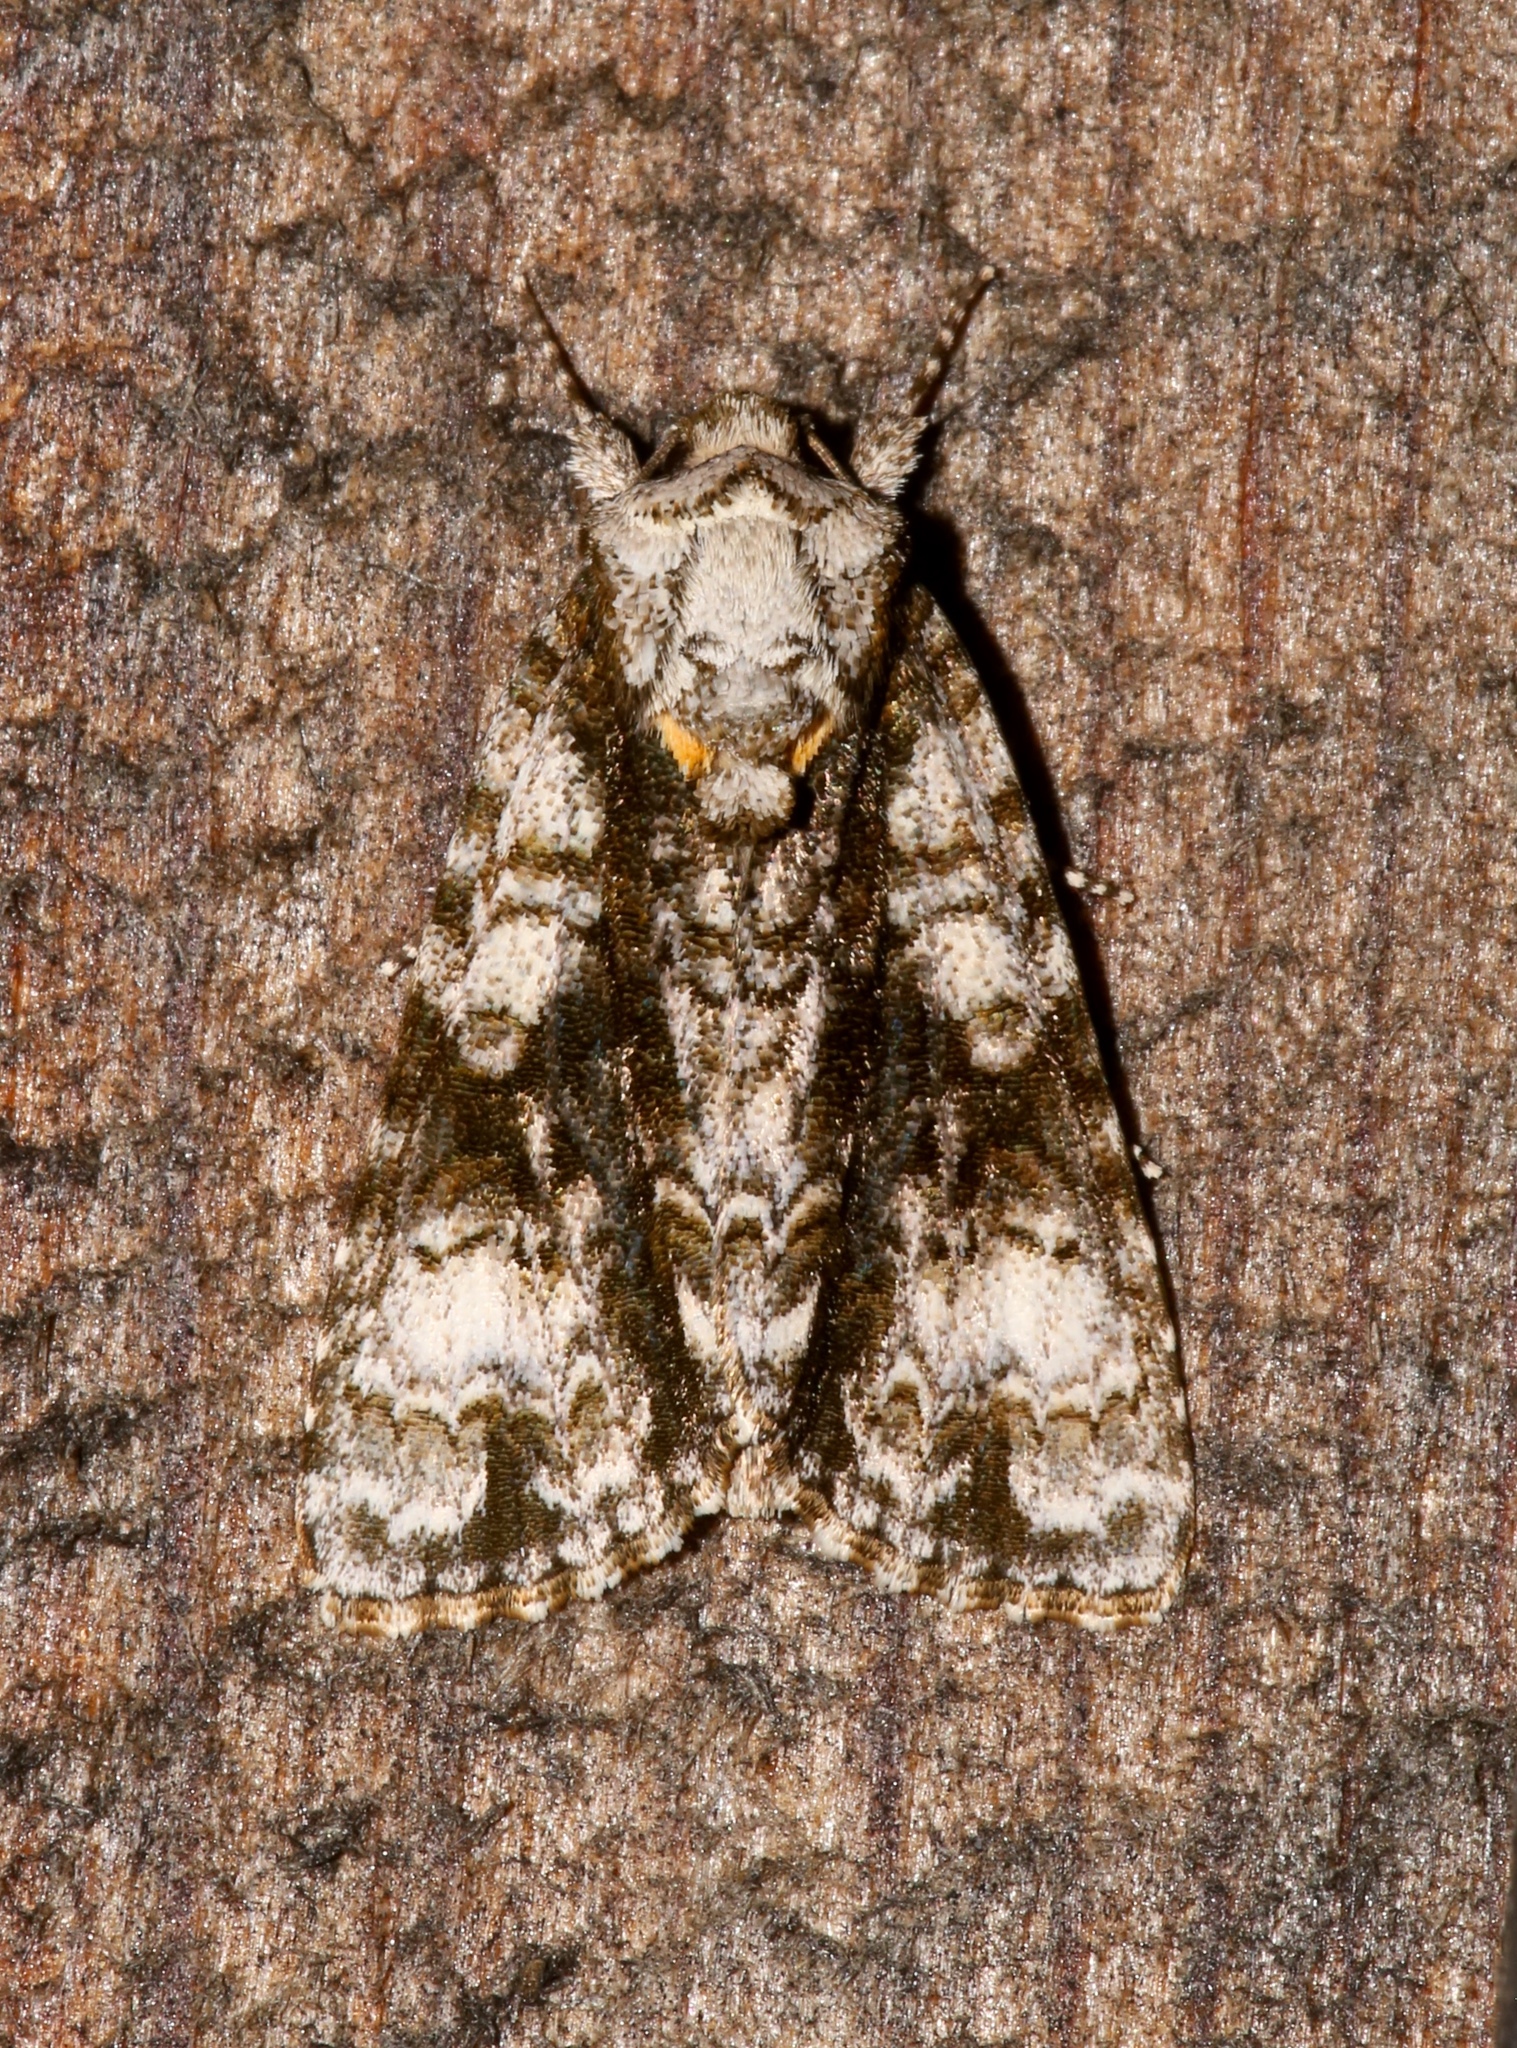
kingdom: Animalia
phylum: Arthropoda
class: Insecta
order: Lepidoptera
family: Noctuidae
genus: Acronicta
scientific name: Acronicta superans
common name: Splendid dagger
